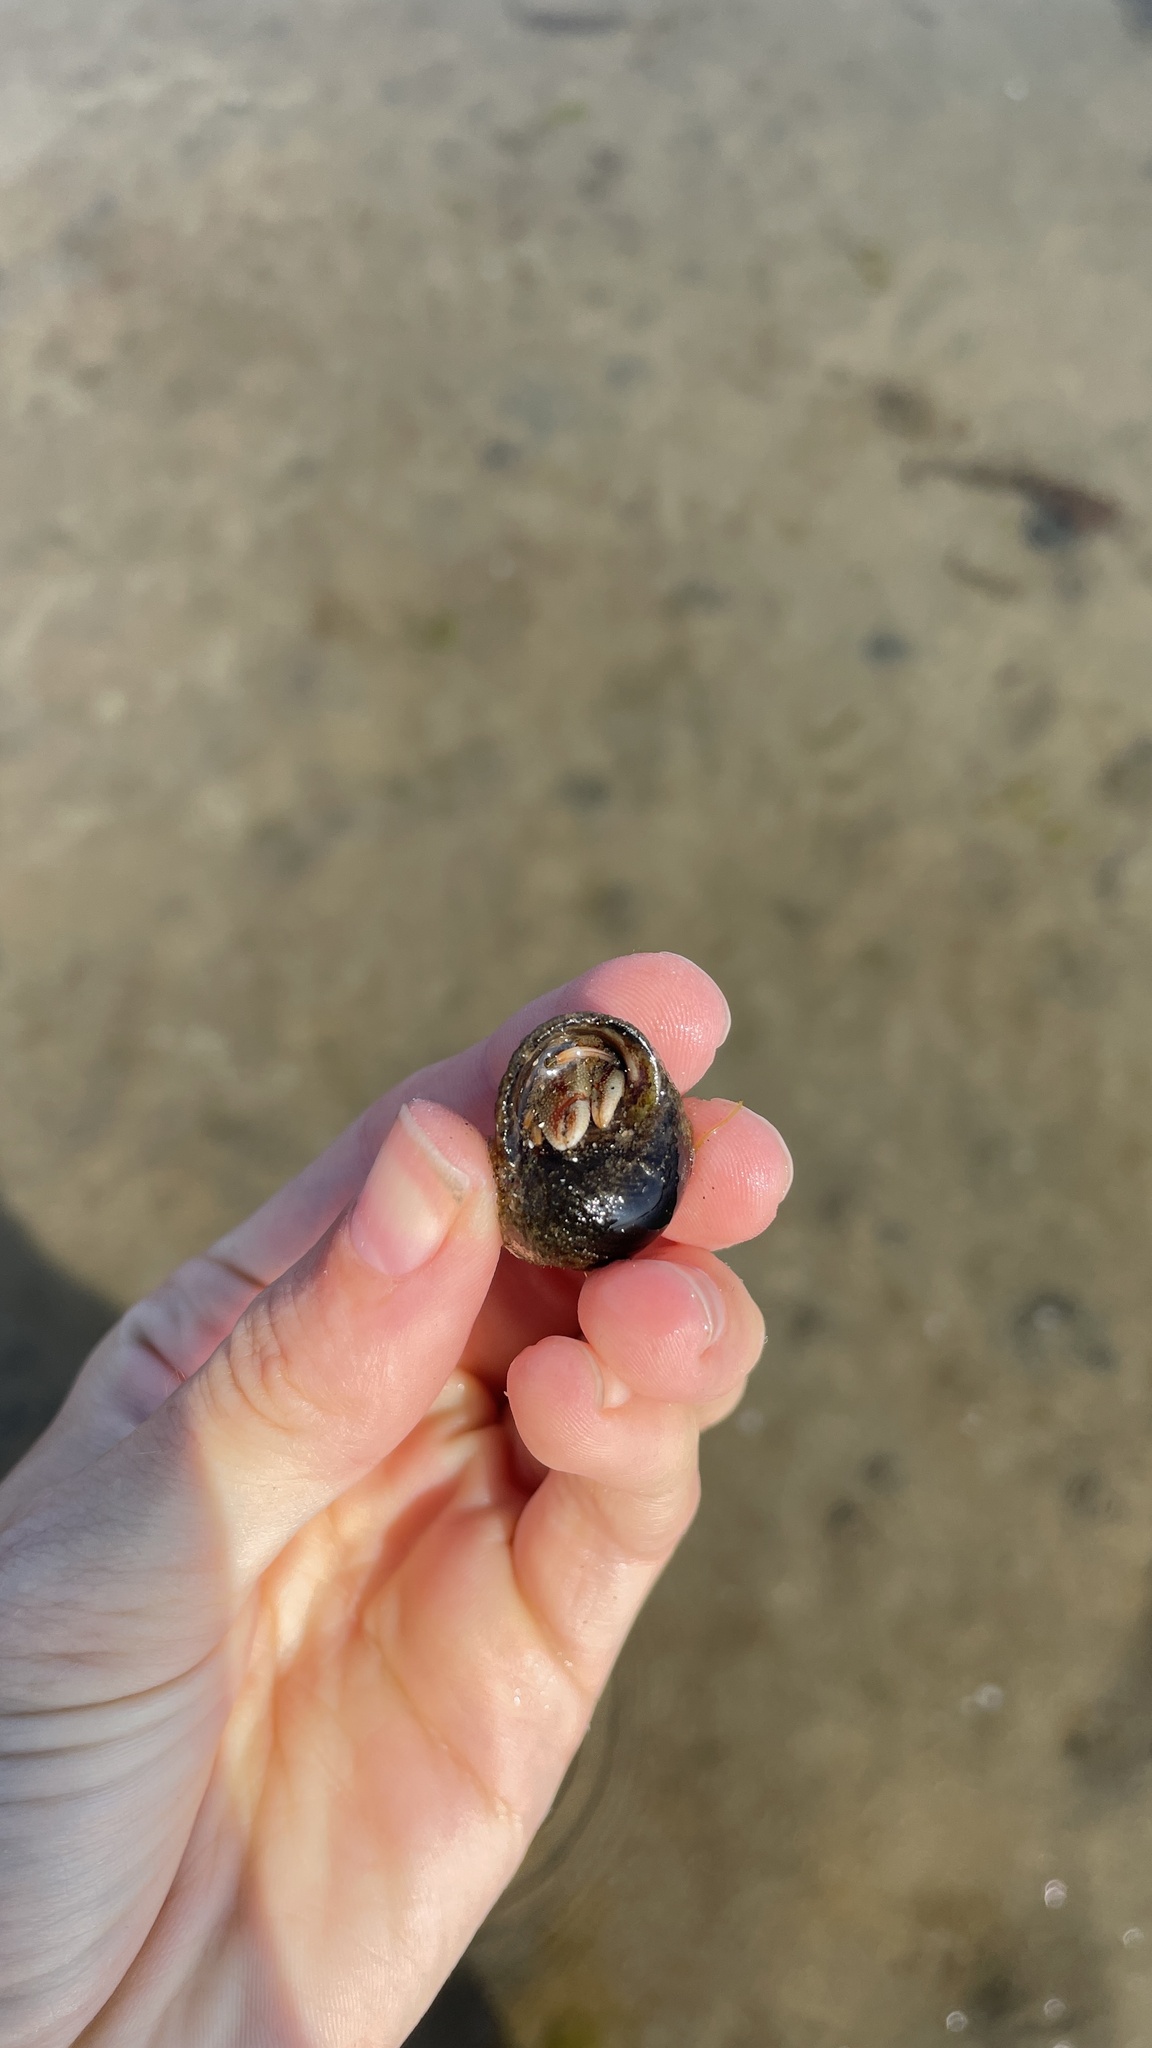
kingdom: Animalia
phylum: Arthropoda
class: Malacostraca
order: Decapoda
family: Paguridae
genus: Pagurus
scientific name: Pagurus bernhardus
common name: Hermit crab
